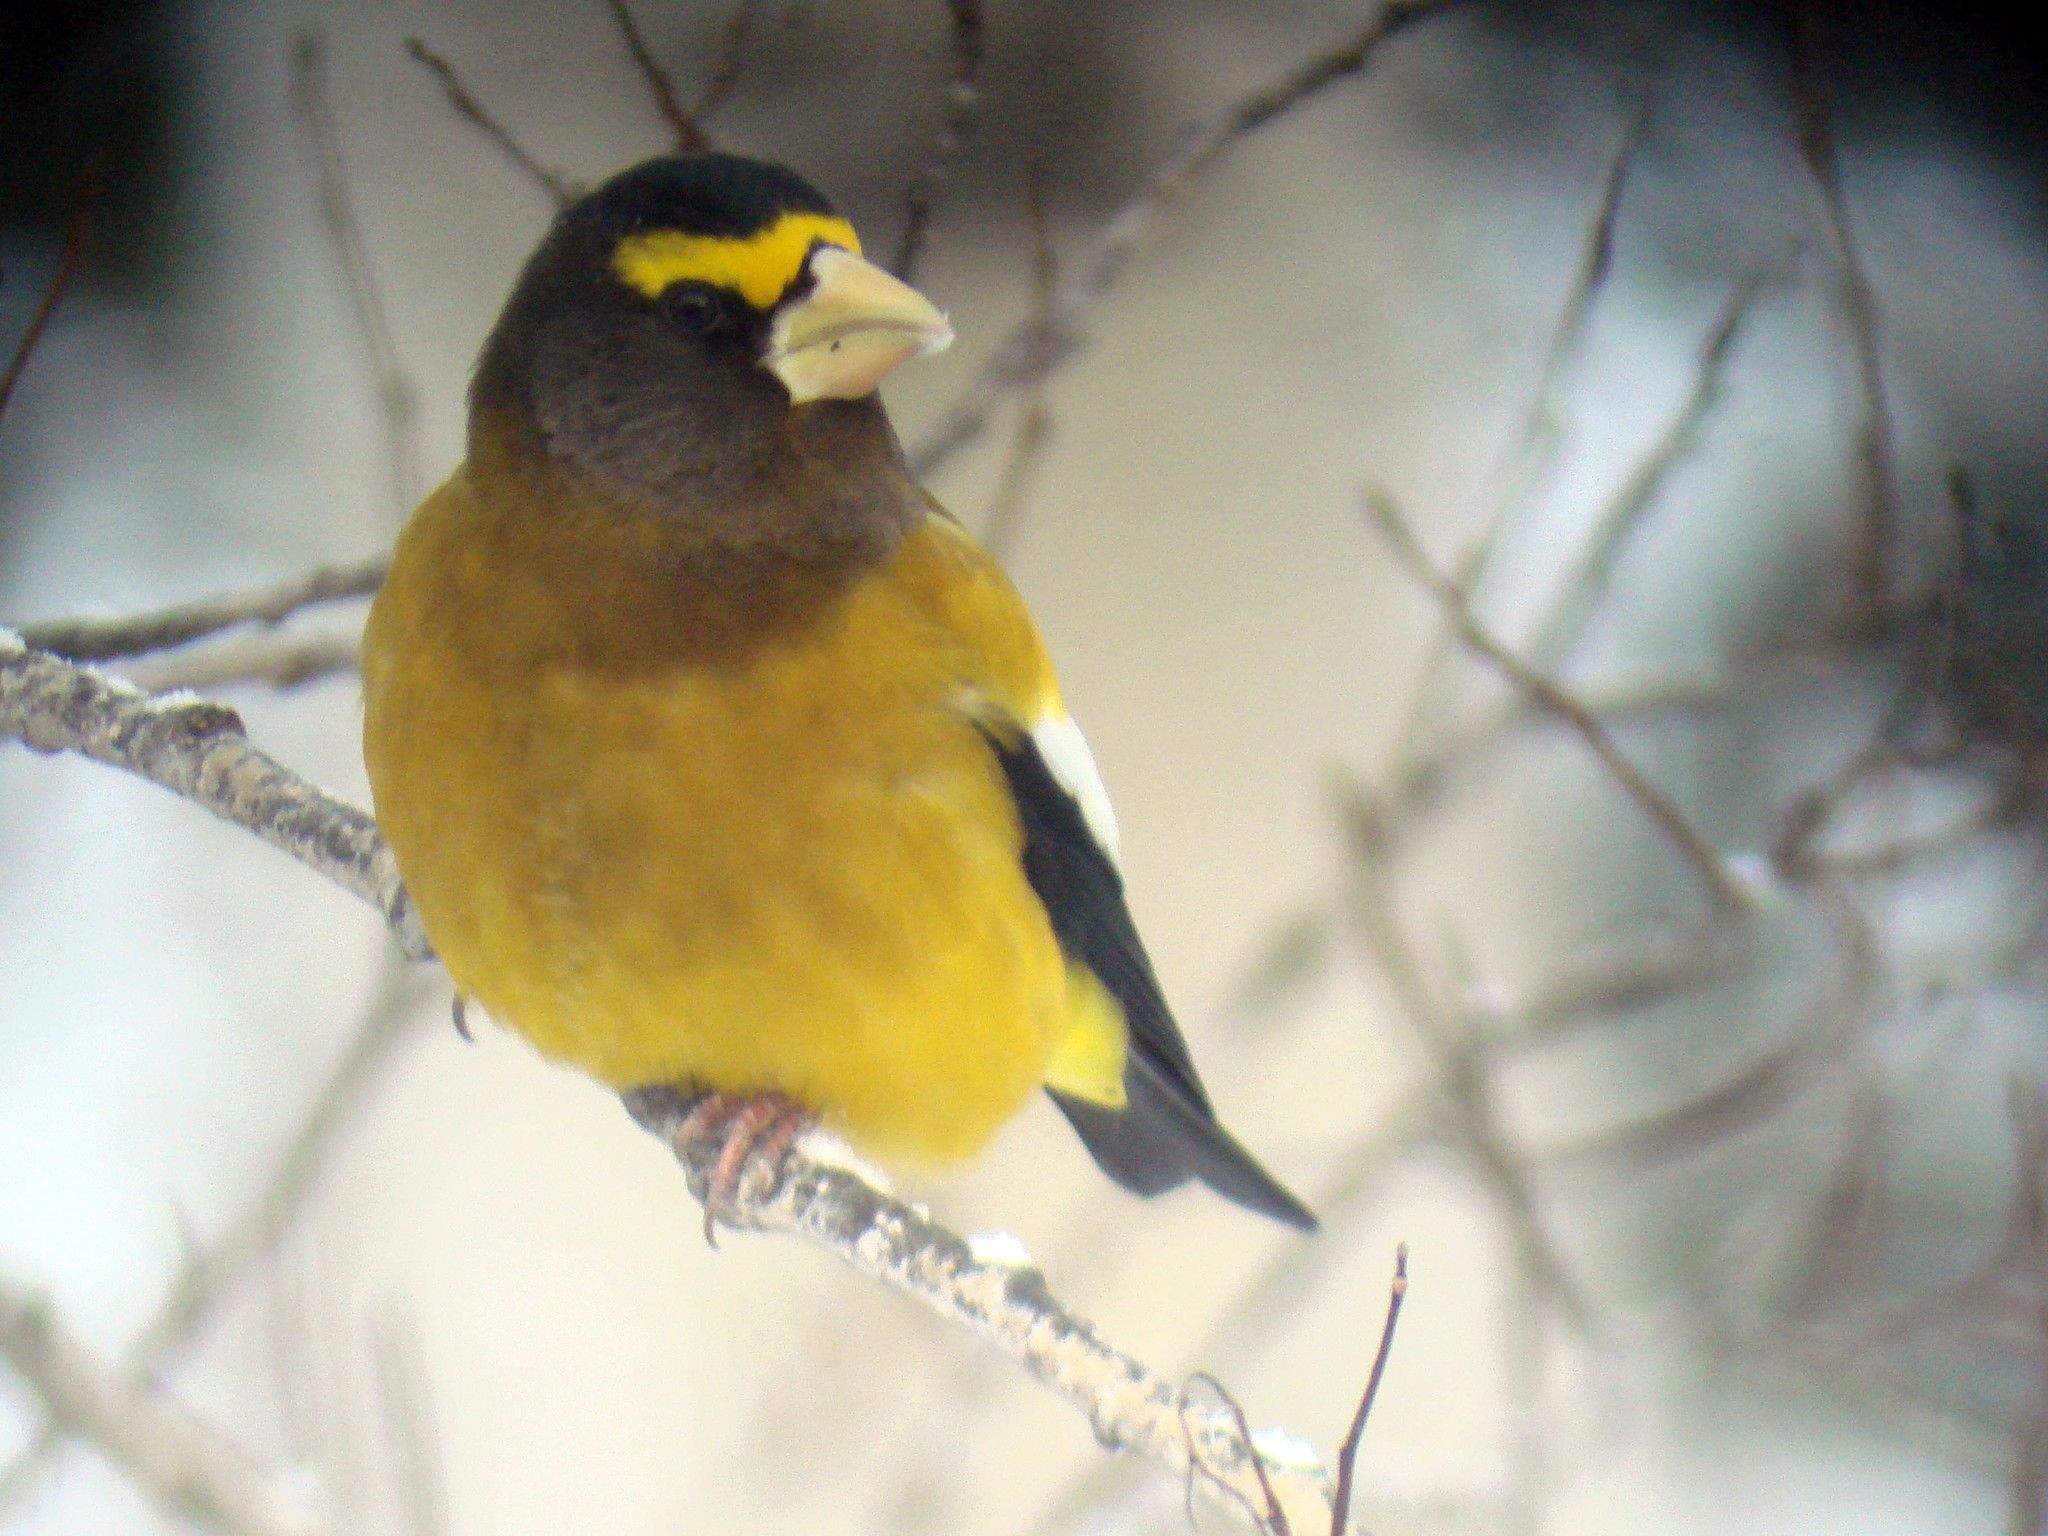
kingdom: Animalia
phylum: Chordata
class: Aves
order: Passeriformes
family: Fringillidae
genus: Hesperiphona
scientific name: Hesperiphona vespertina
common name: Evening grosbeak
